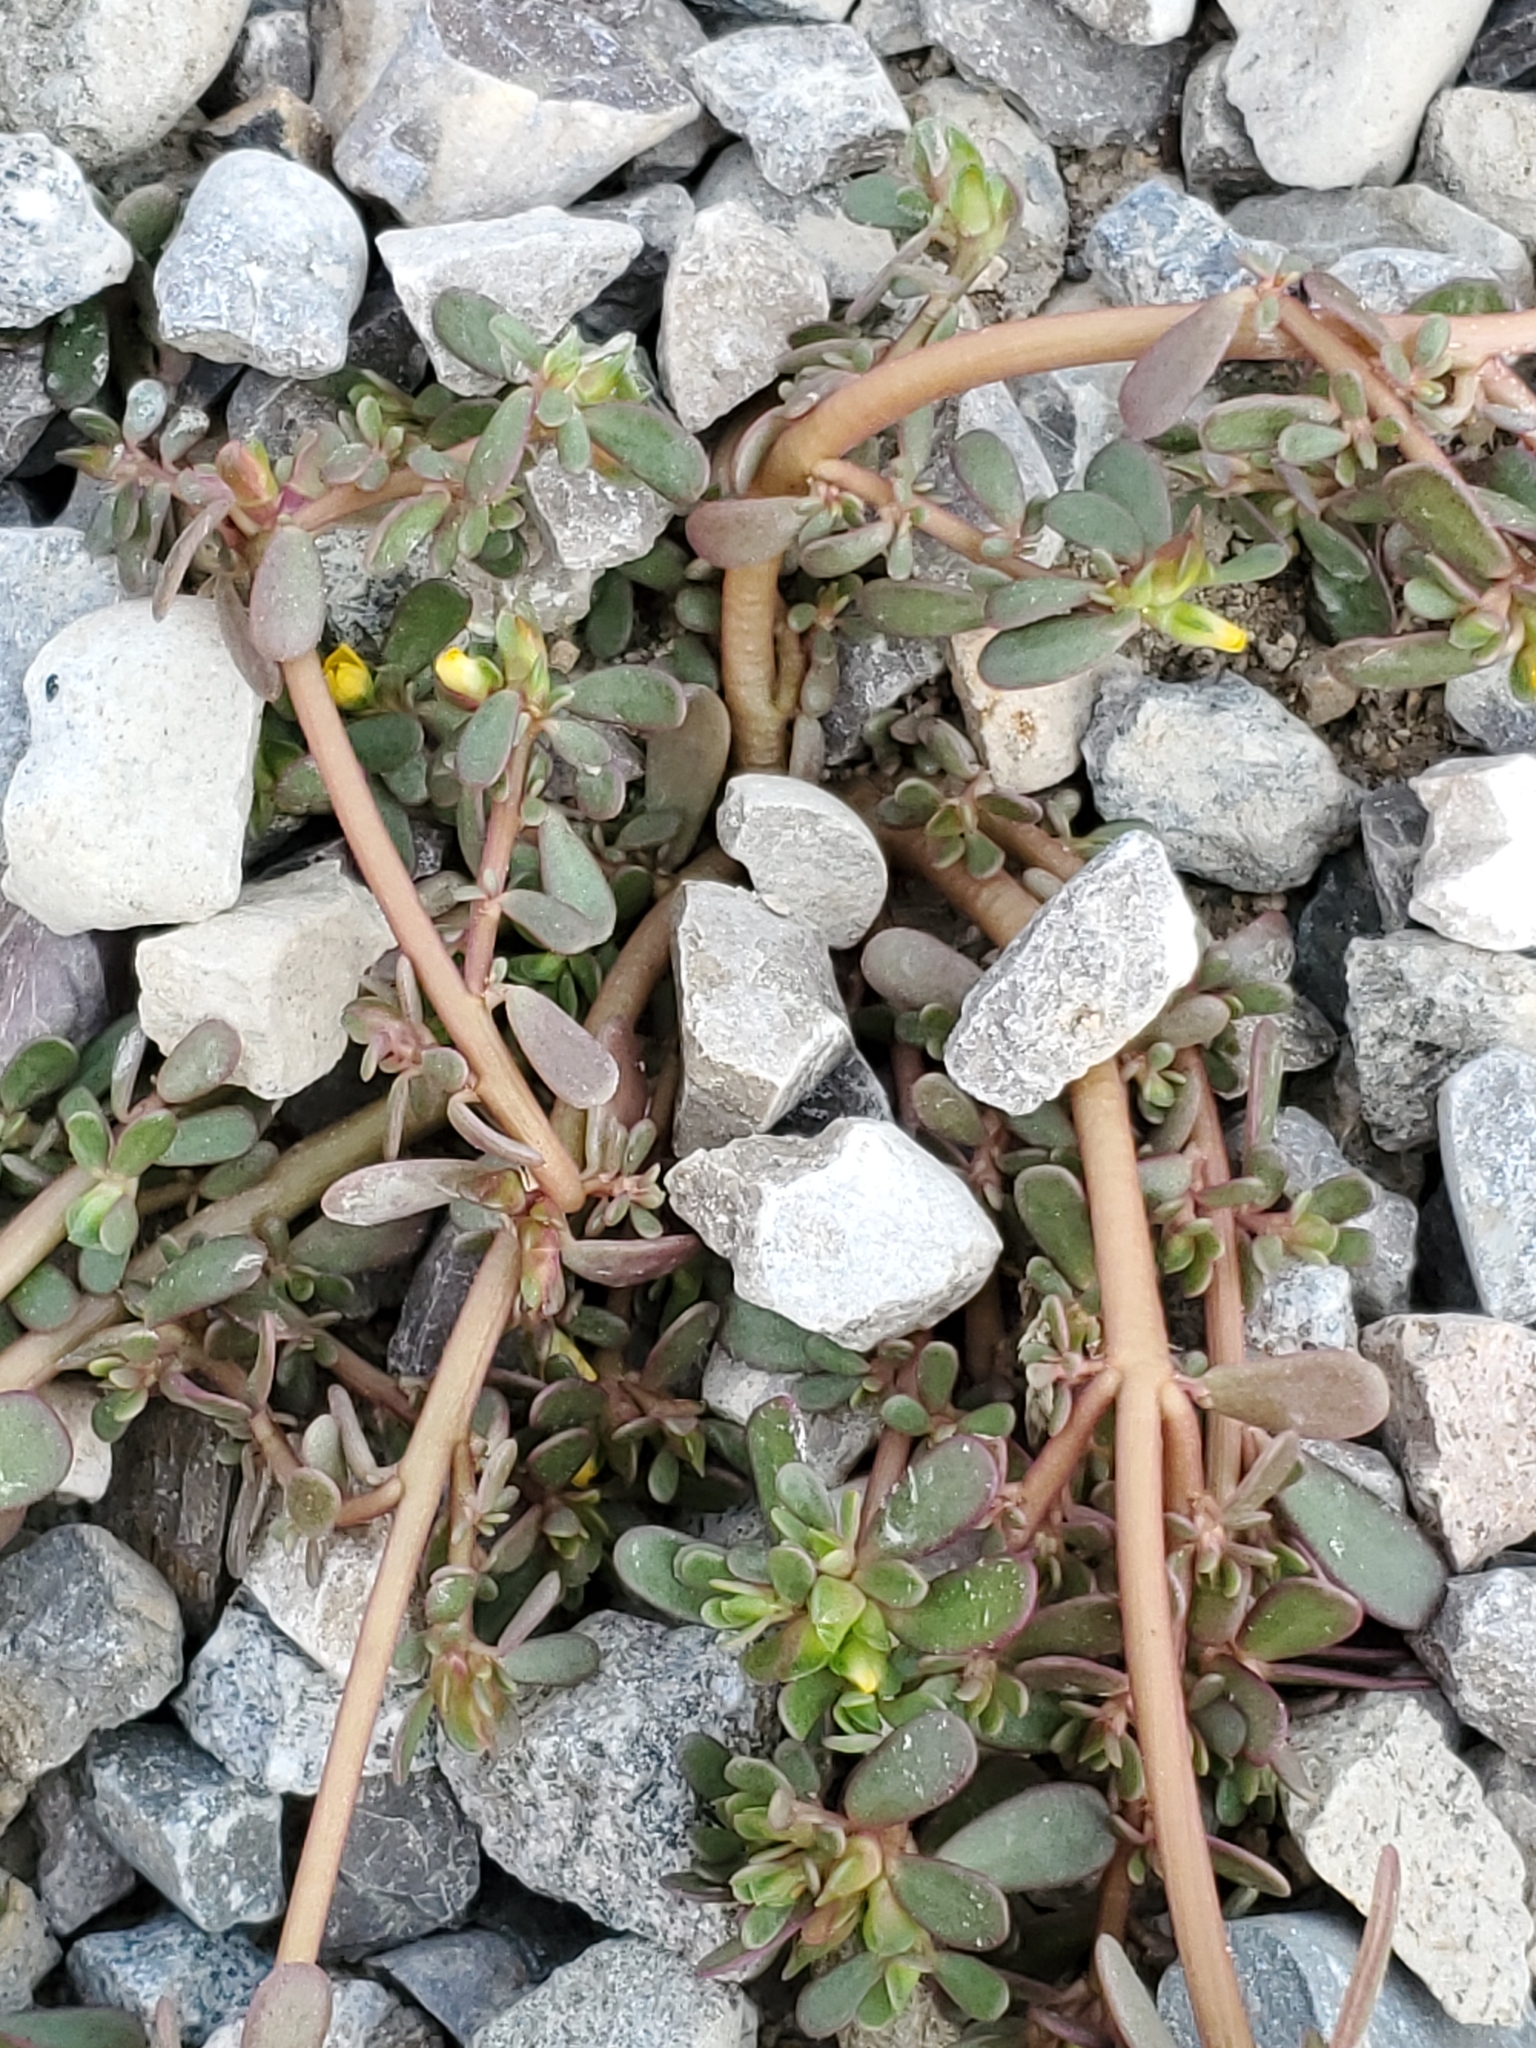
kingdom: Plantae
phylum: Tracheophyta
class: Magnoliopsida
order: Caryophyllales
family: Portulacaceae
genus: Portulaca
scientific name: Portulaca oleracea
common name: Common purslane
